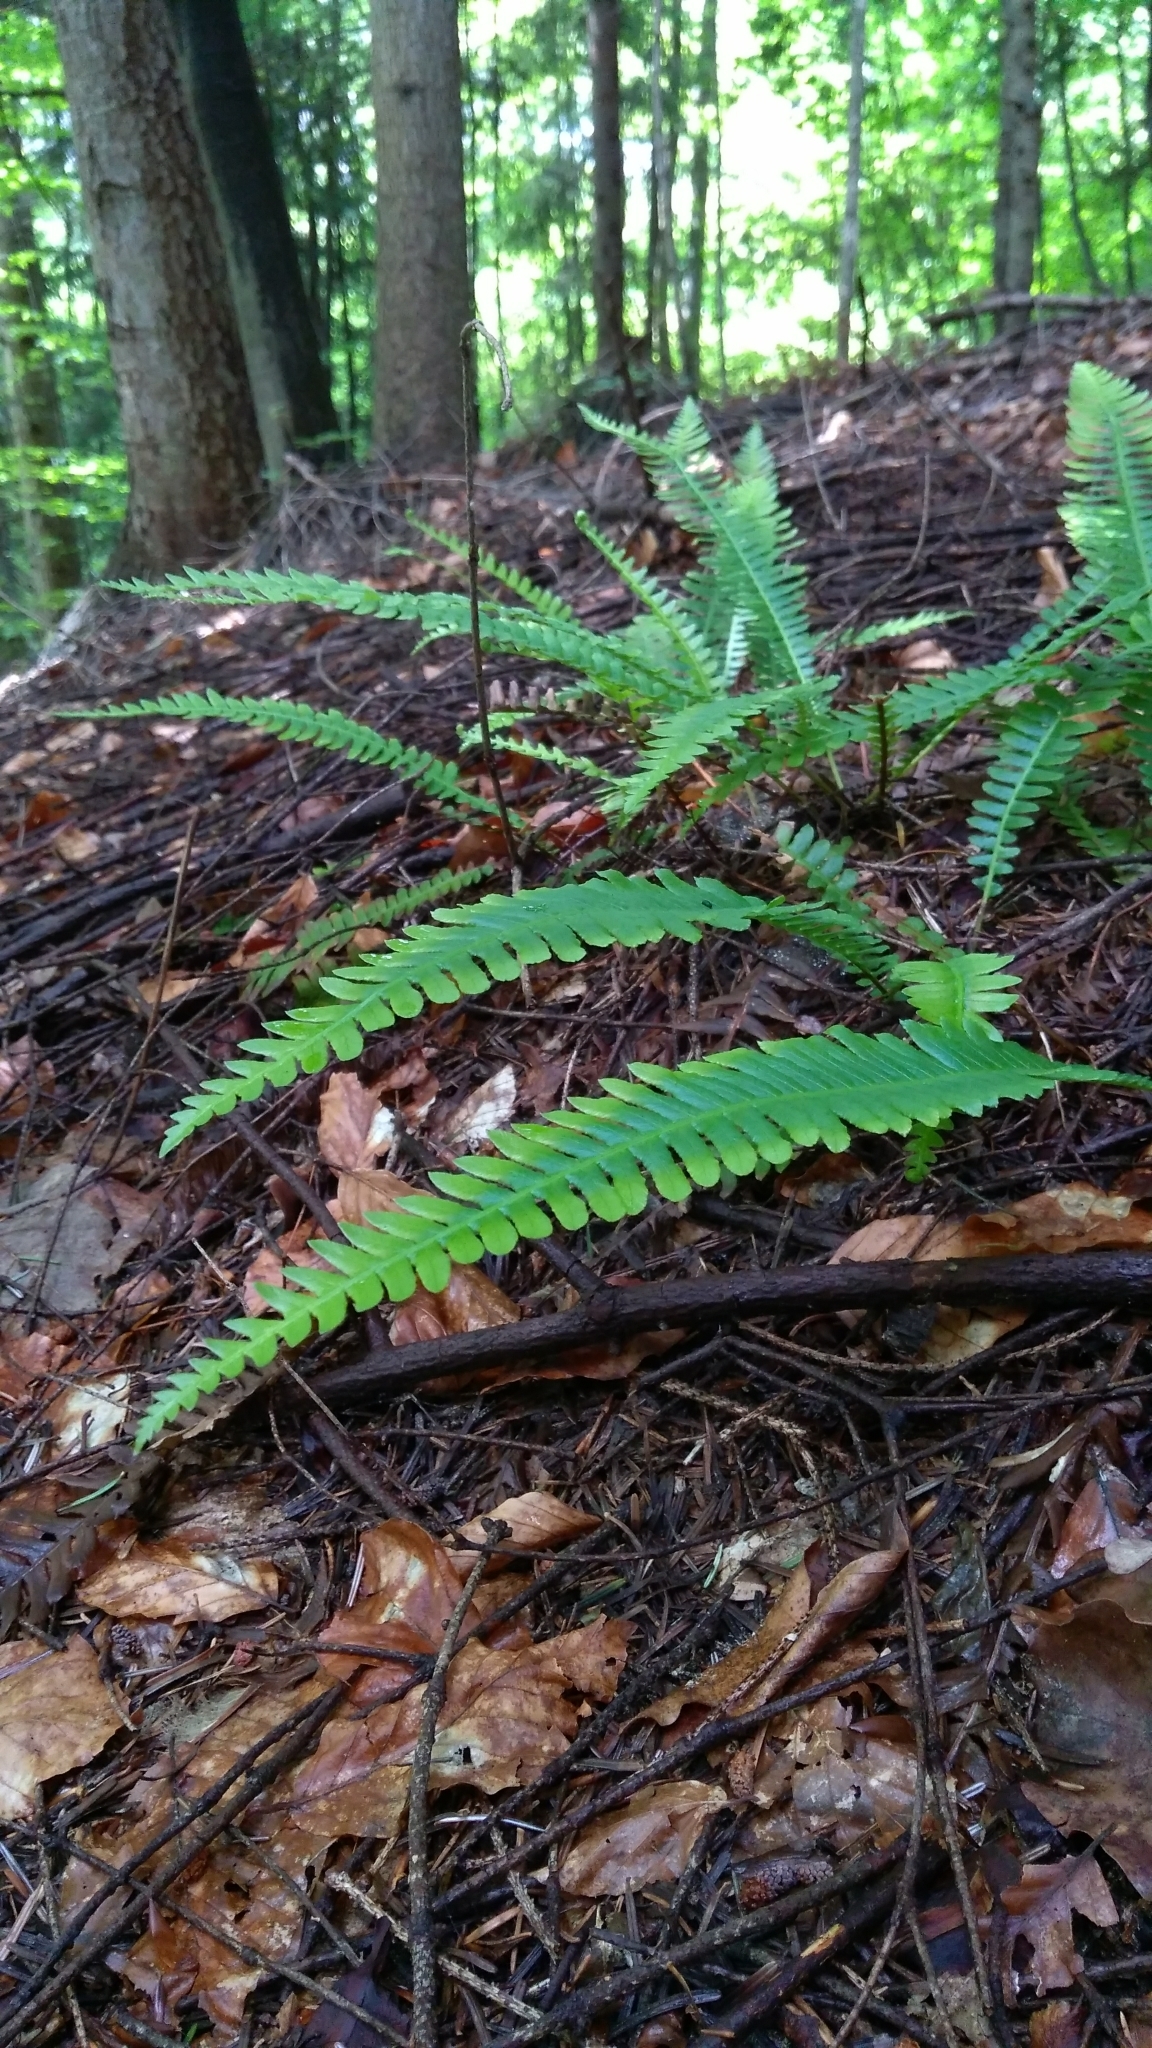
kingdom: Plantae
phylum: Tracheophyta
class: Polypodiopsida
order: Polypodiales
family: Blechnaceae
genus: Struthiopteris
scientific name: Struthiopteris spicant
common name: Deer fern
